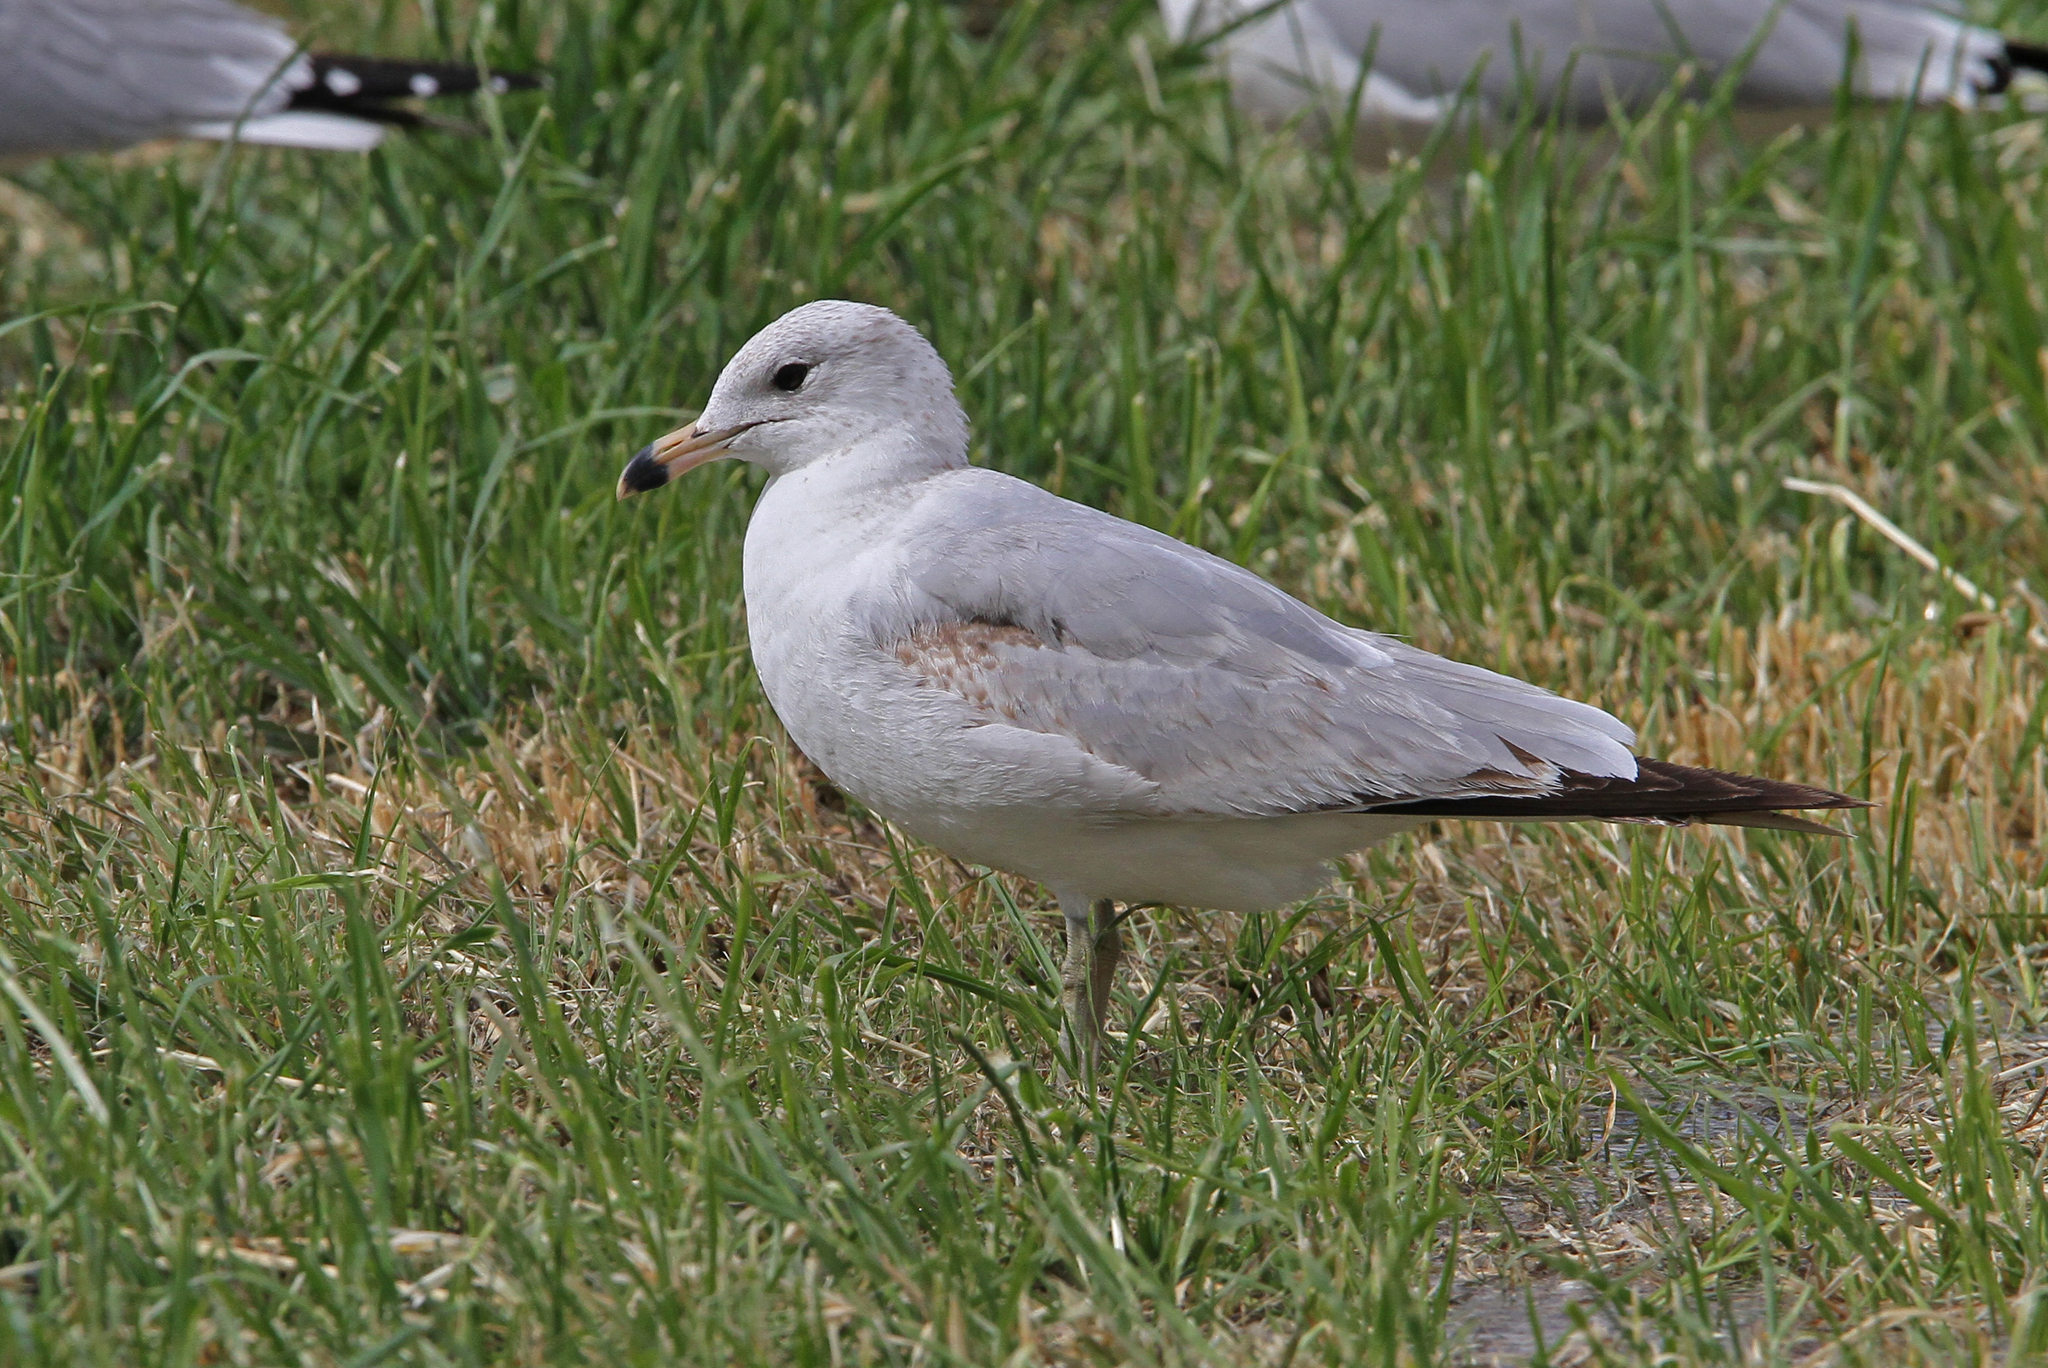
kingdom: Animalia
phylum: Chordata
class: Aves
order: Charadriiformes
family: Laridae
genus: Larus
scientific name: Larus delawarensis
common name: Ring-billed gull
